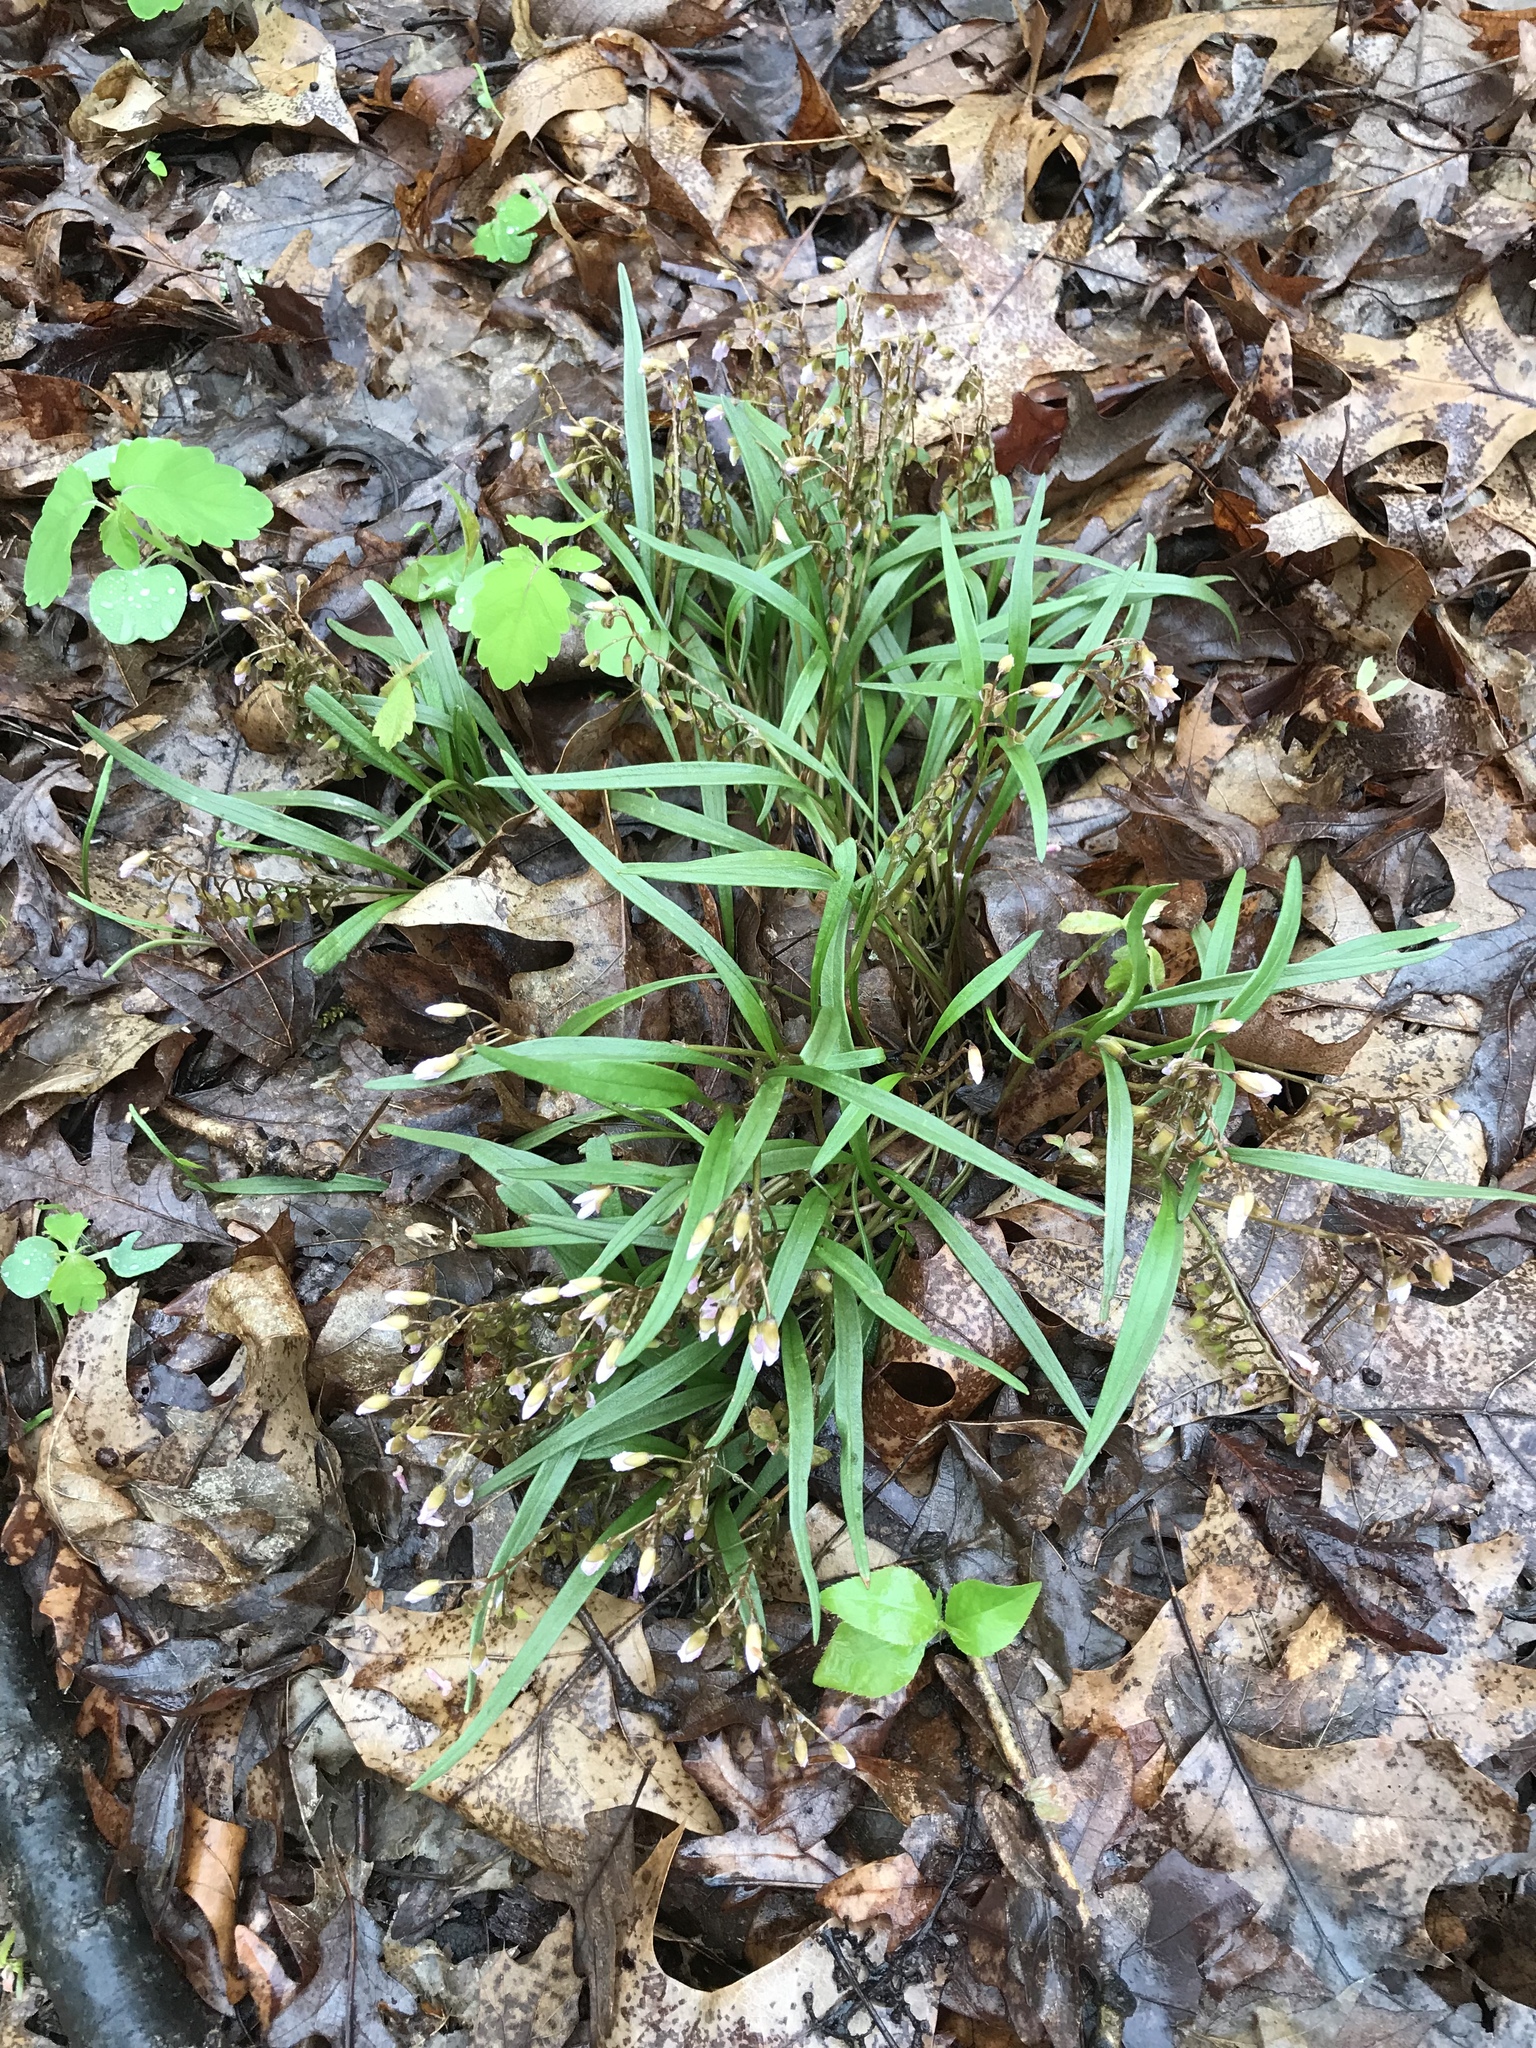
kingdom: Plantae
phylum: Tracheophyta
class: Magnoliopsida
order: Caryophyllales
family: Montiaceae
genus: Claytonia
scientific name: Claytonia virginica
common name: Virginia springbeauty
